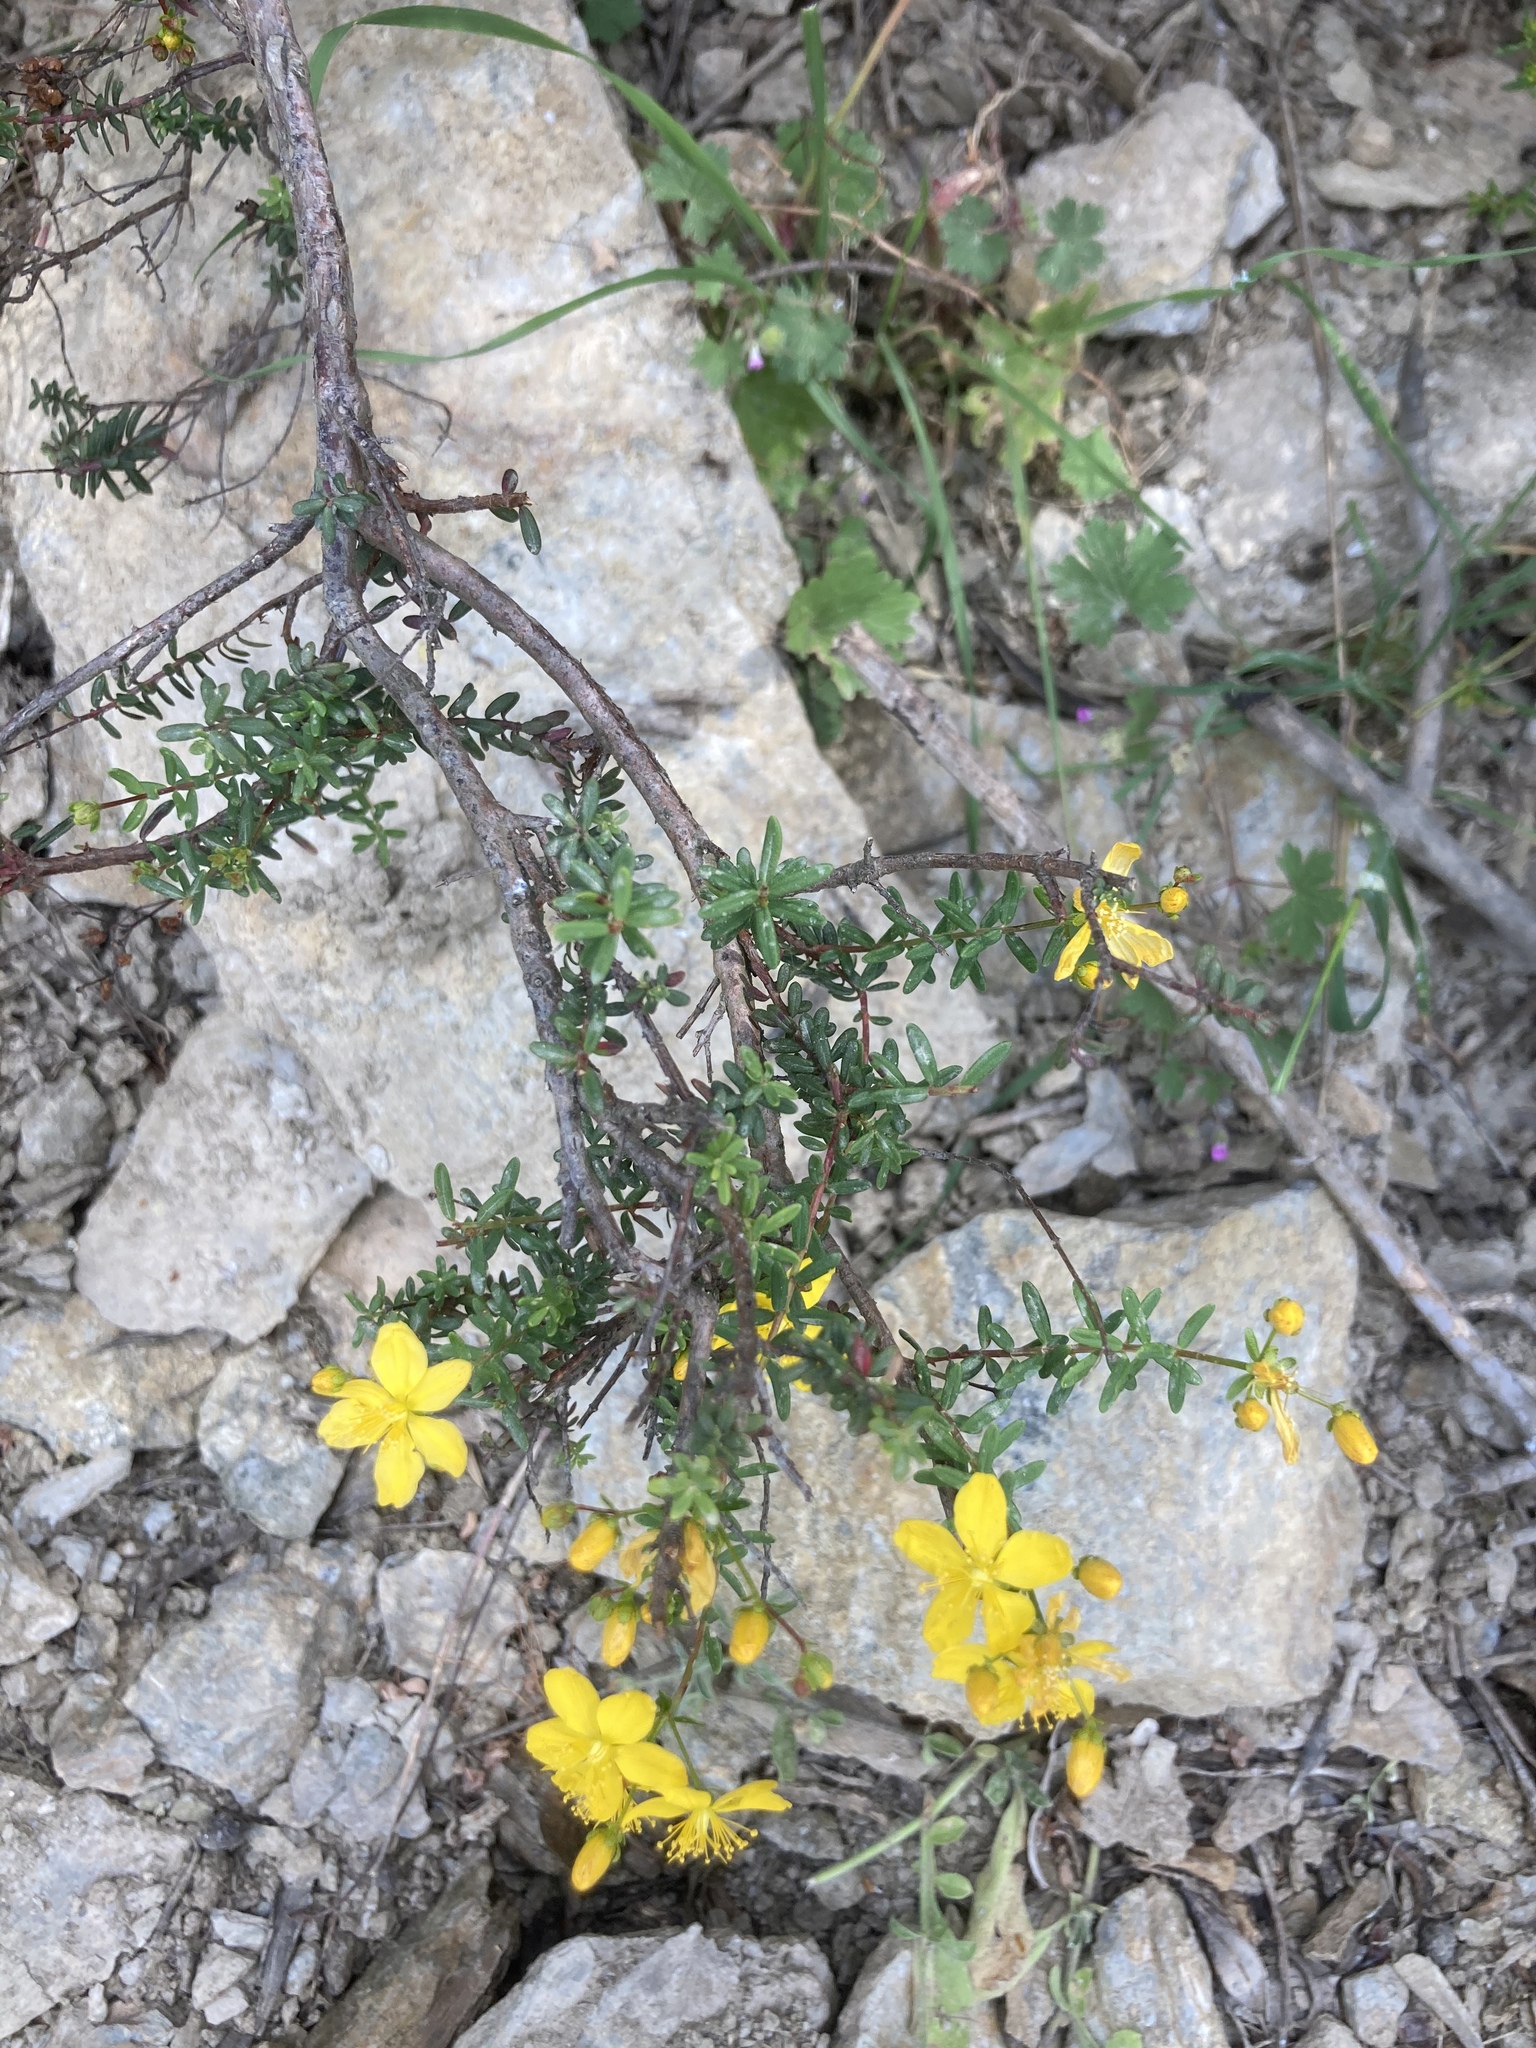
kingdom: Plantae
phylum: Tracheophyta
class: Magnoliopsida
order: Malpighiales
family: Hypericaceae
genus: Hypericum
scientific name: Hypericum empetrifolium
